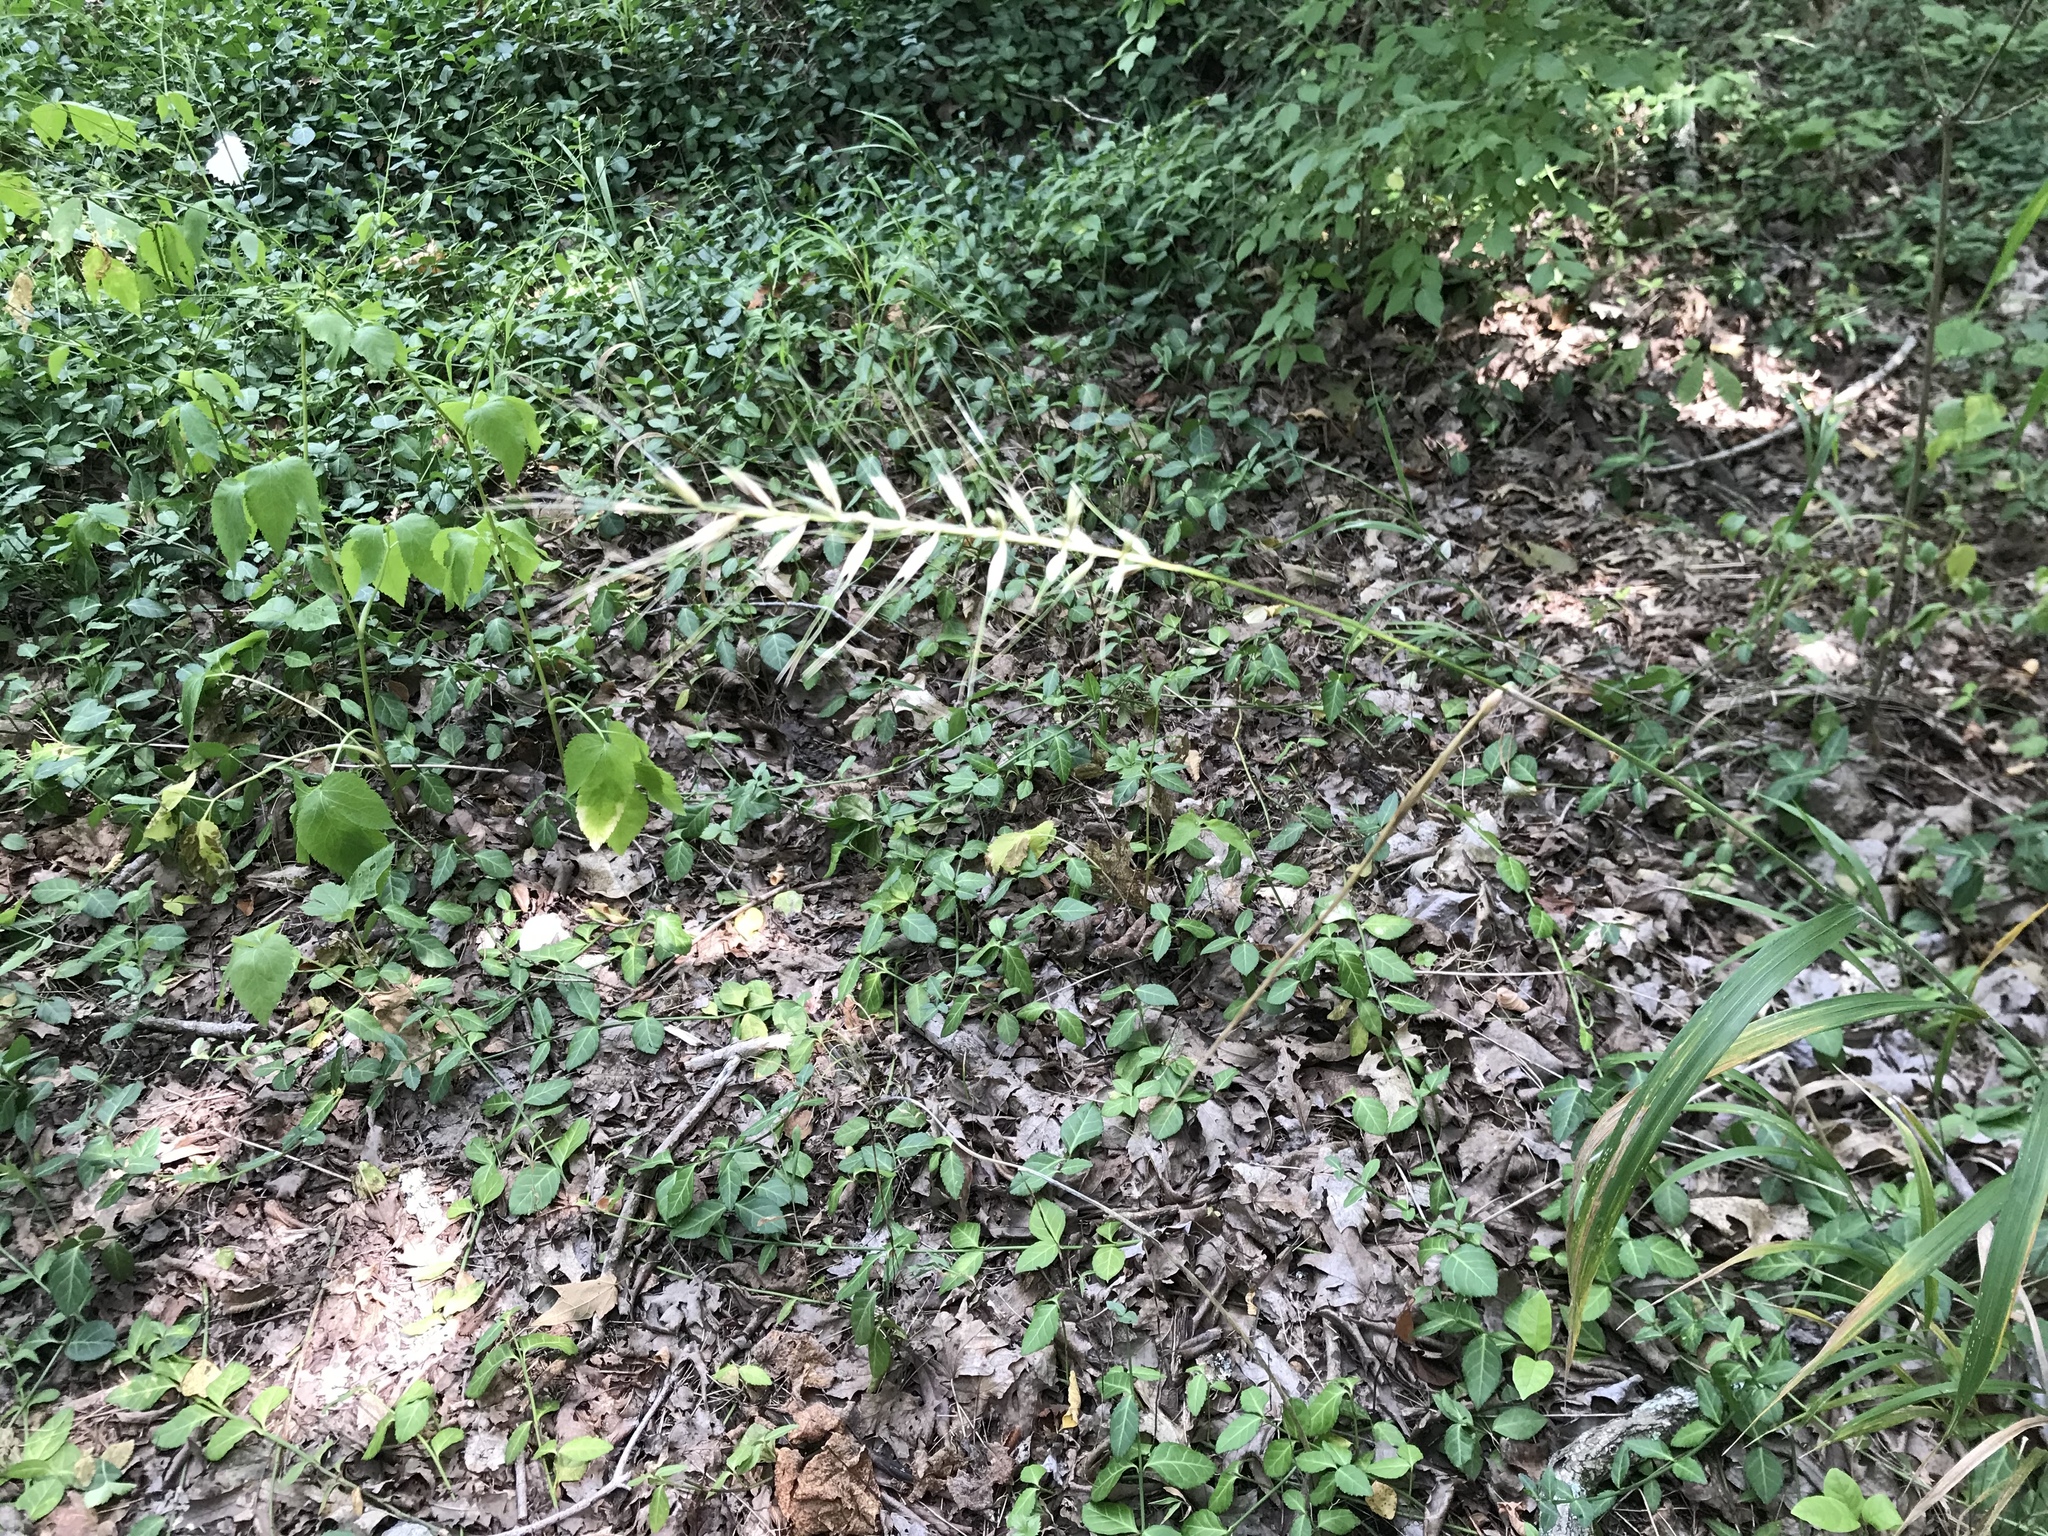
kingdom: Plantae
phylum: Tracheophyta
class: Liliopsida
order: Poales
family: Poaceae
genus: Elymus
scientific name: Elymus hystrix
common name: Bottlebrush grass
